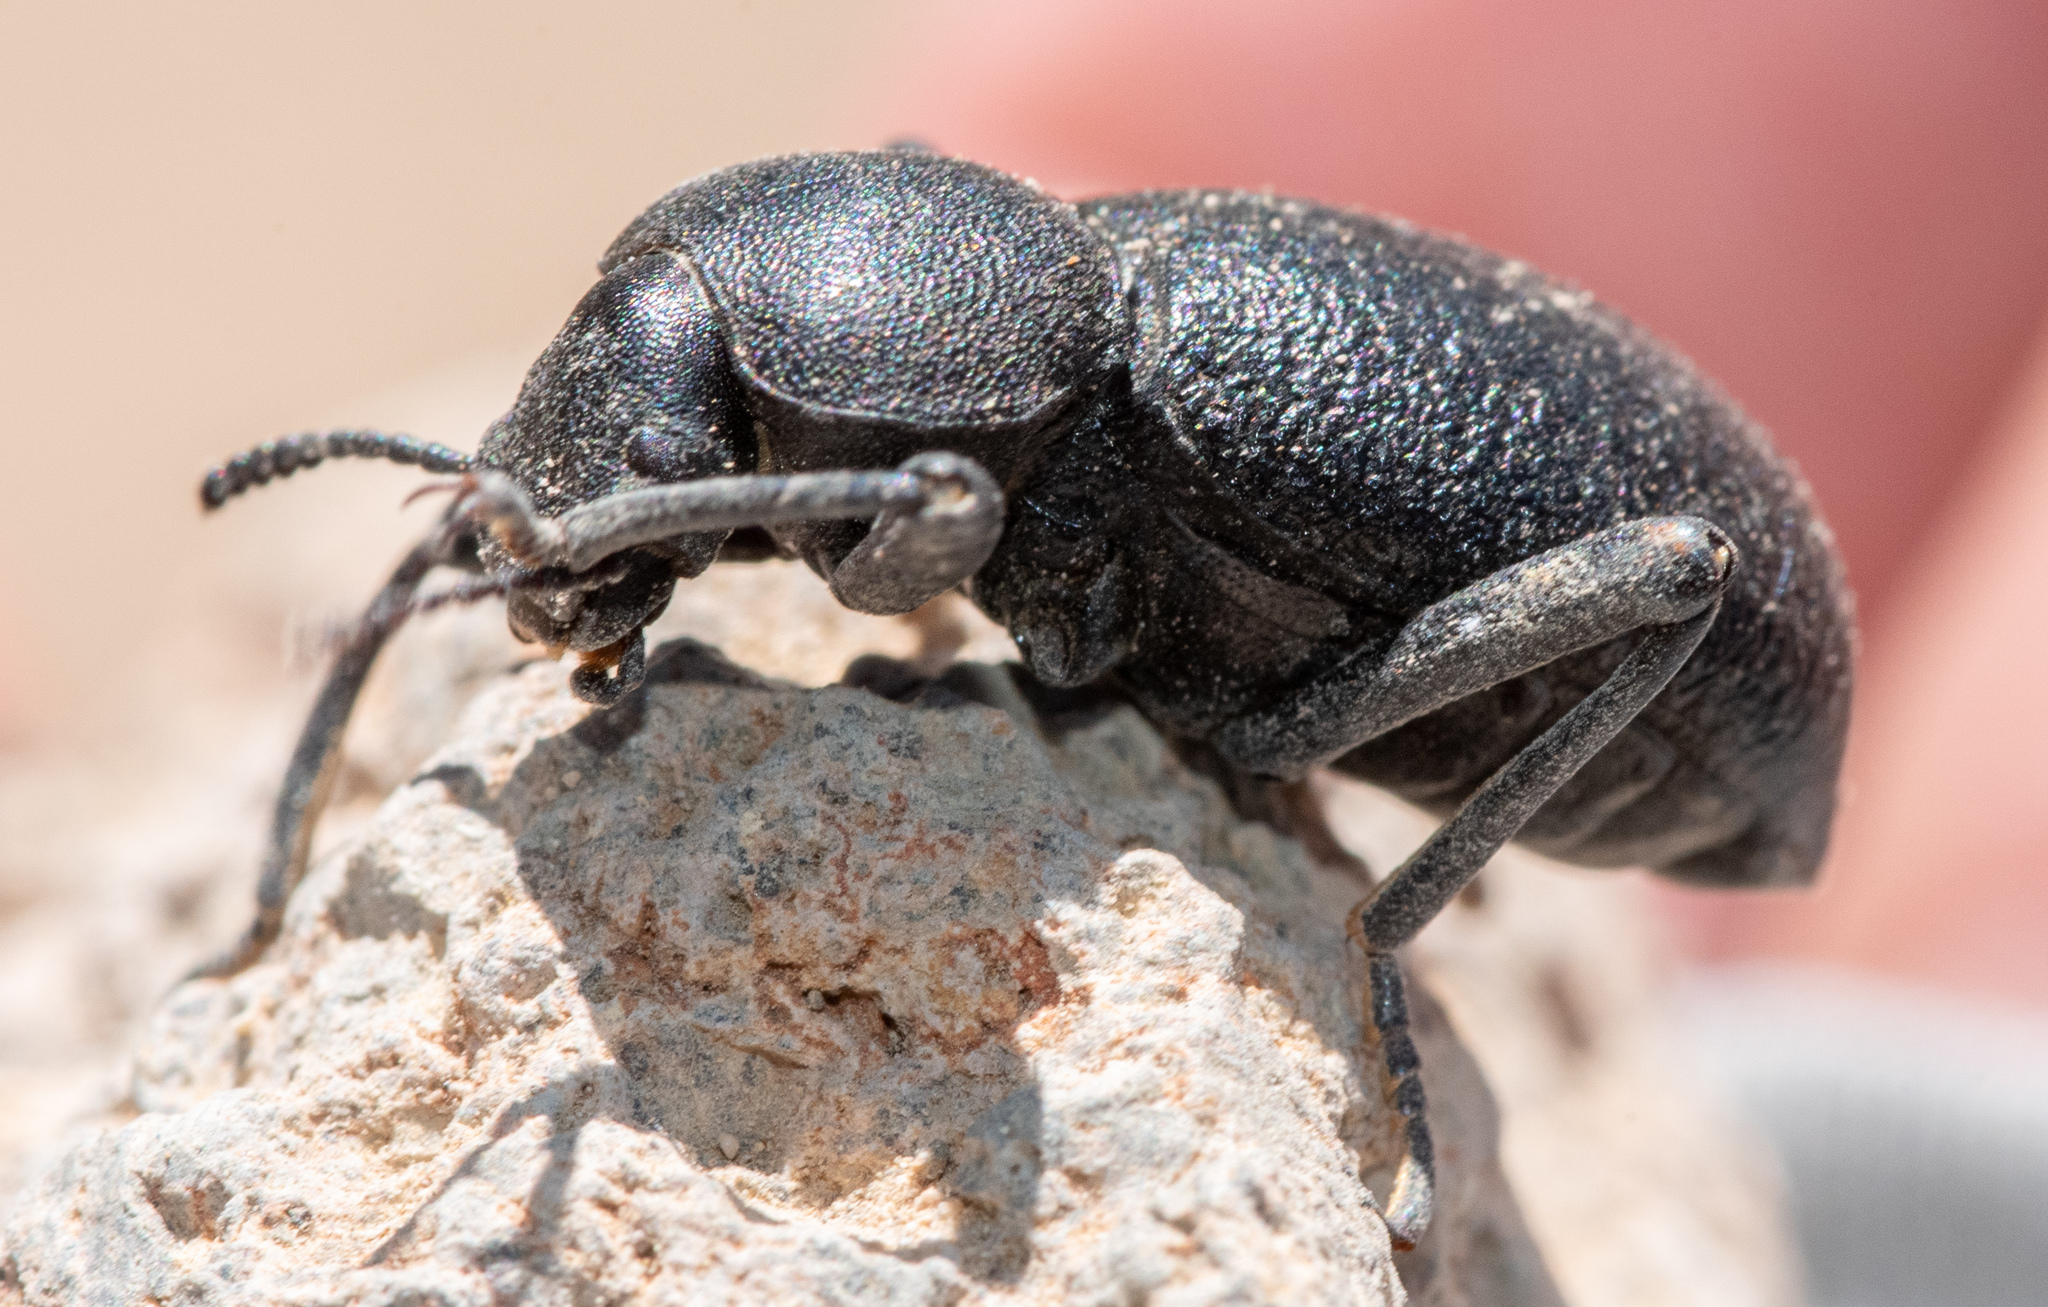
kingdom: Animalia
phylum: Arthropoda
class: Insecta
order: Coleoptera
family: Tenebrionidae
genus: Coelocnemis
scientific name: Coelocnemis rugulosa
